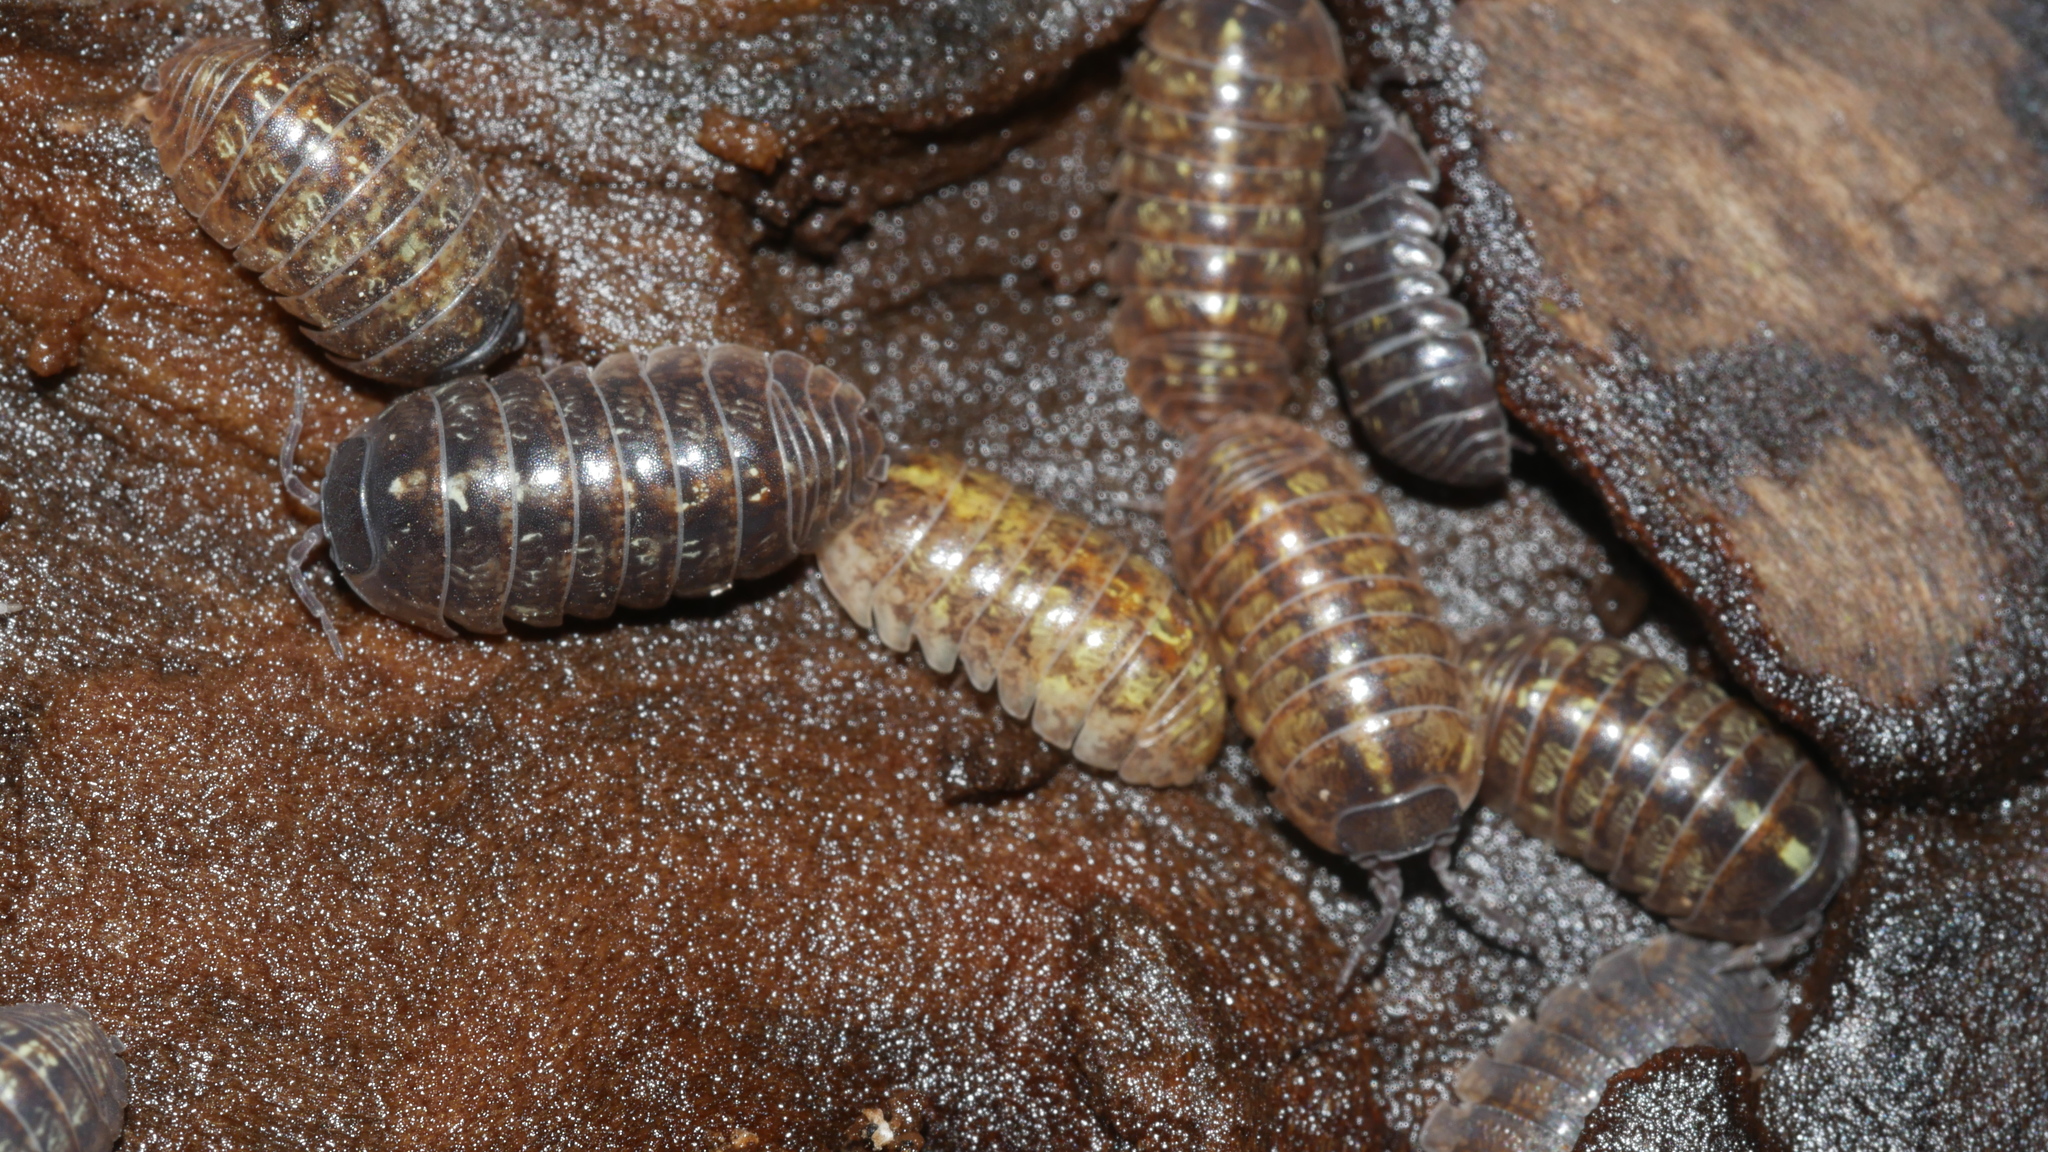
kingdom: Animalia
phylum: Arthropoda
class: Malacostraca
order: Isopoda
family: Armadillidiidae
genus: Armadillidium
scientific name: Armadillidium vulgare
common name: Common pill woodlouse
